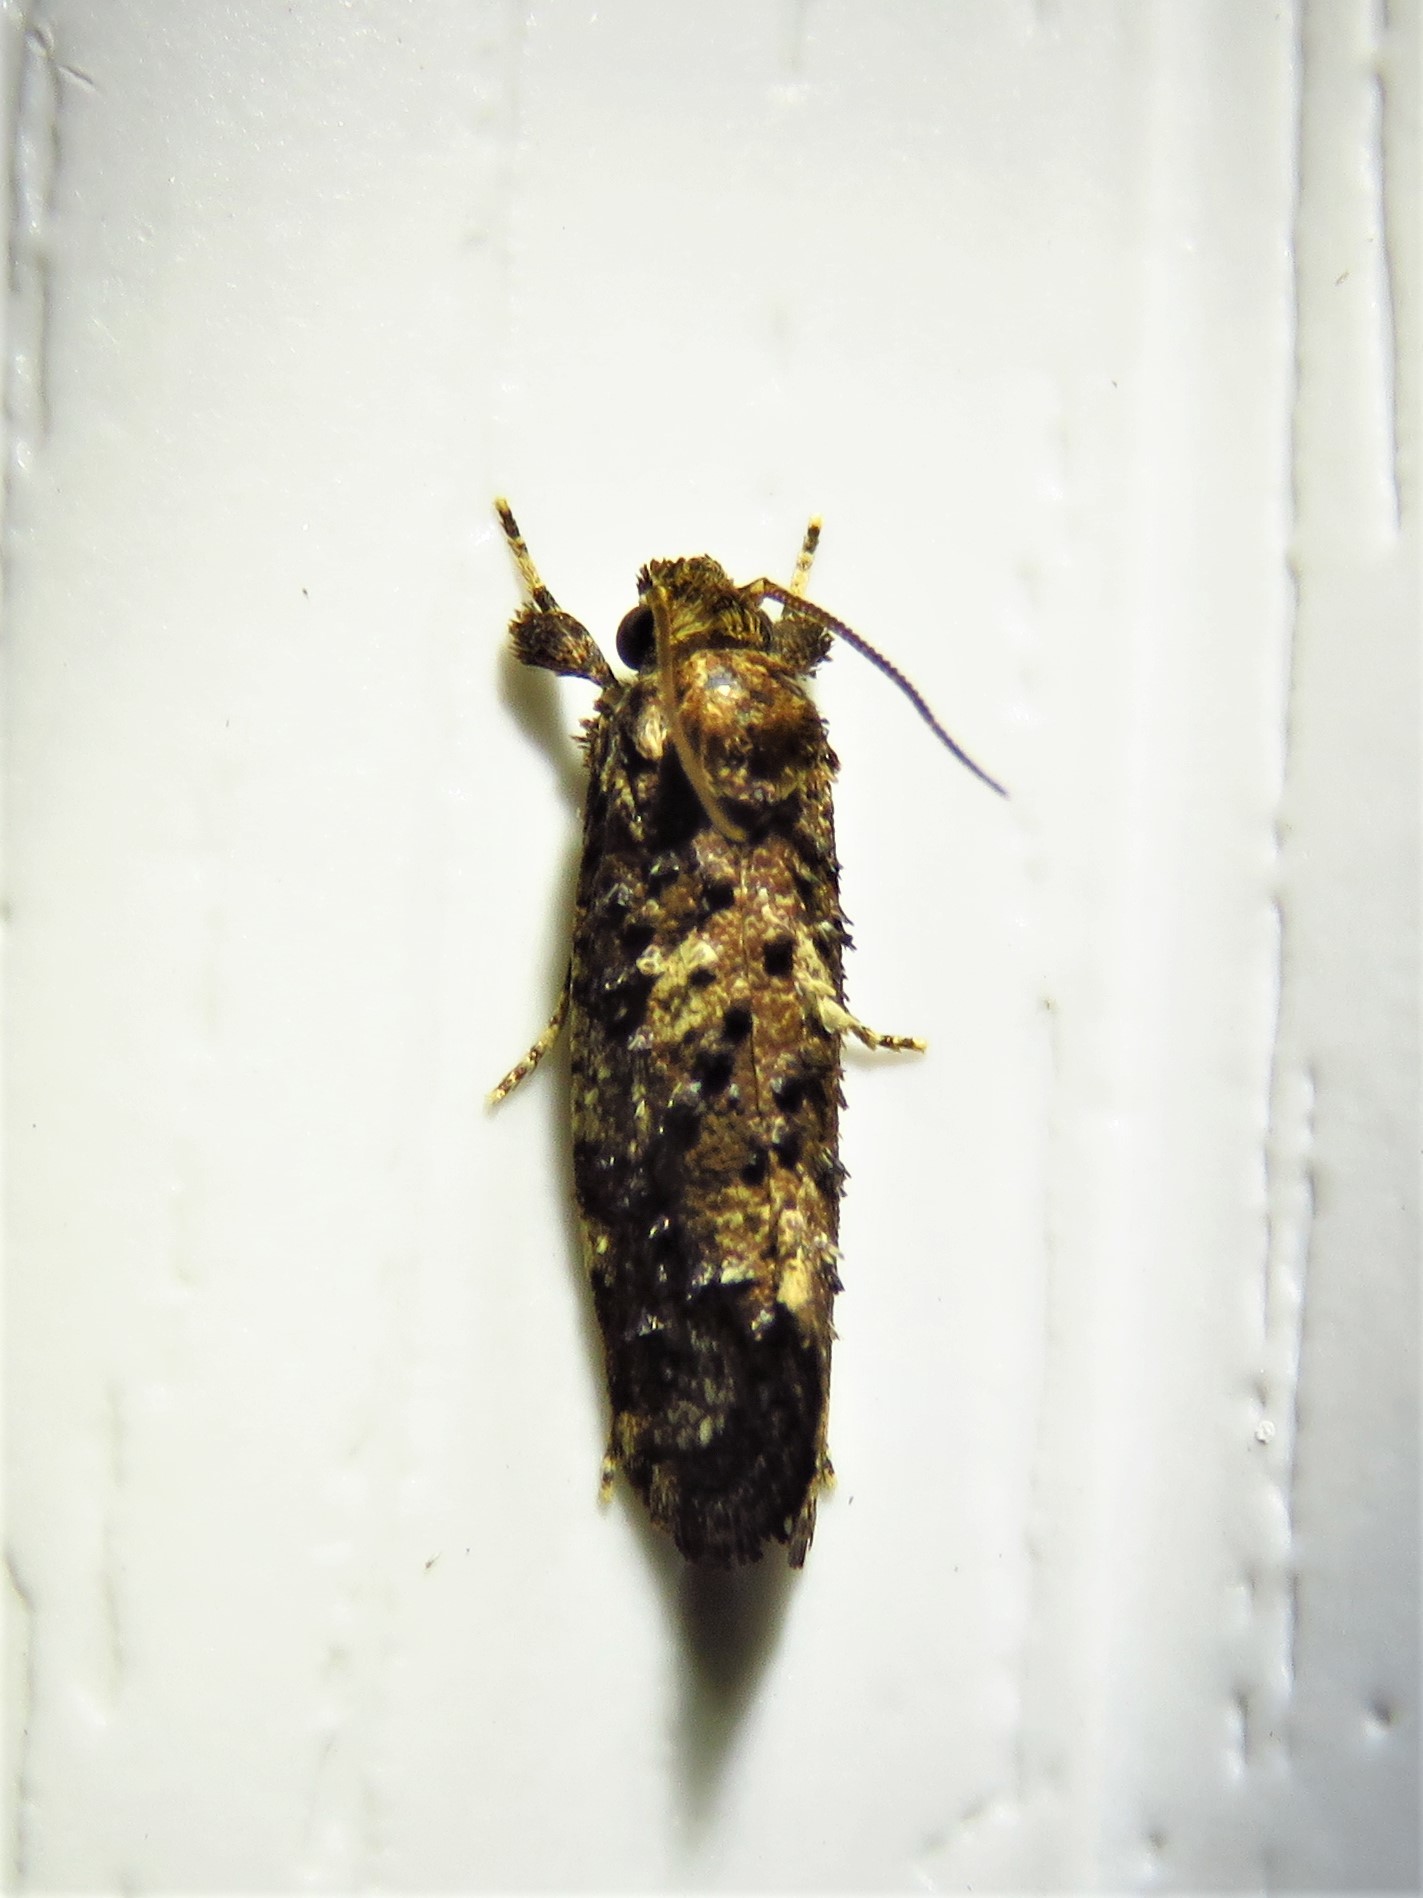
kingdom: Animalia
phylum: Arthropoda
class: Insecta
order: Lepidoptera
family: Tineidae
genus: Acrolophus
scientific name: Acrolophus cressoni
